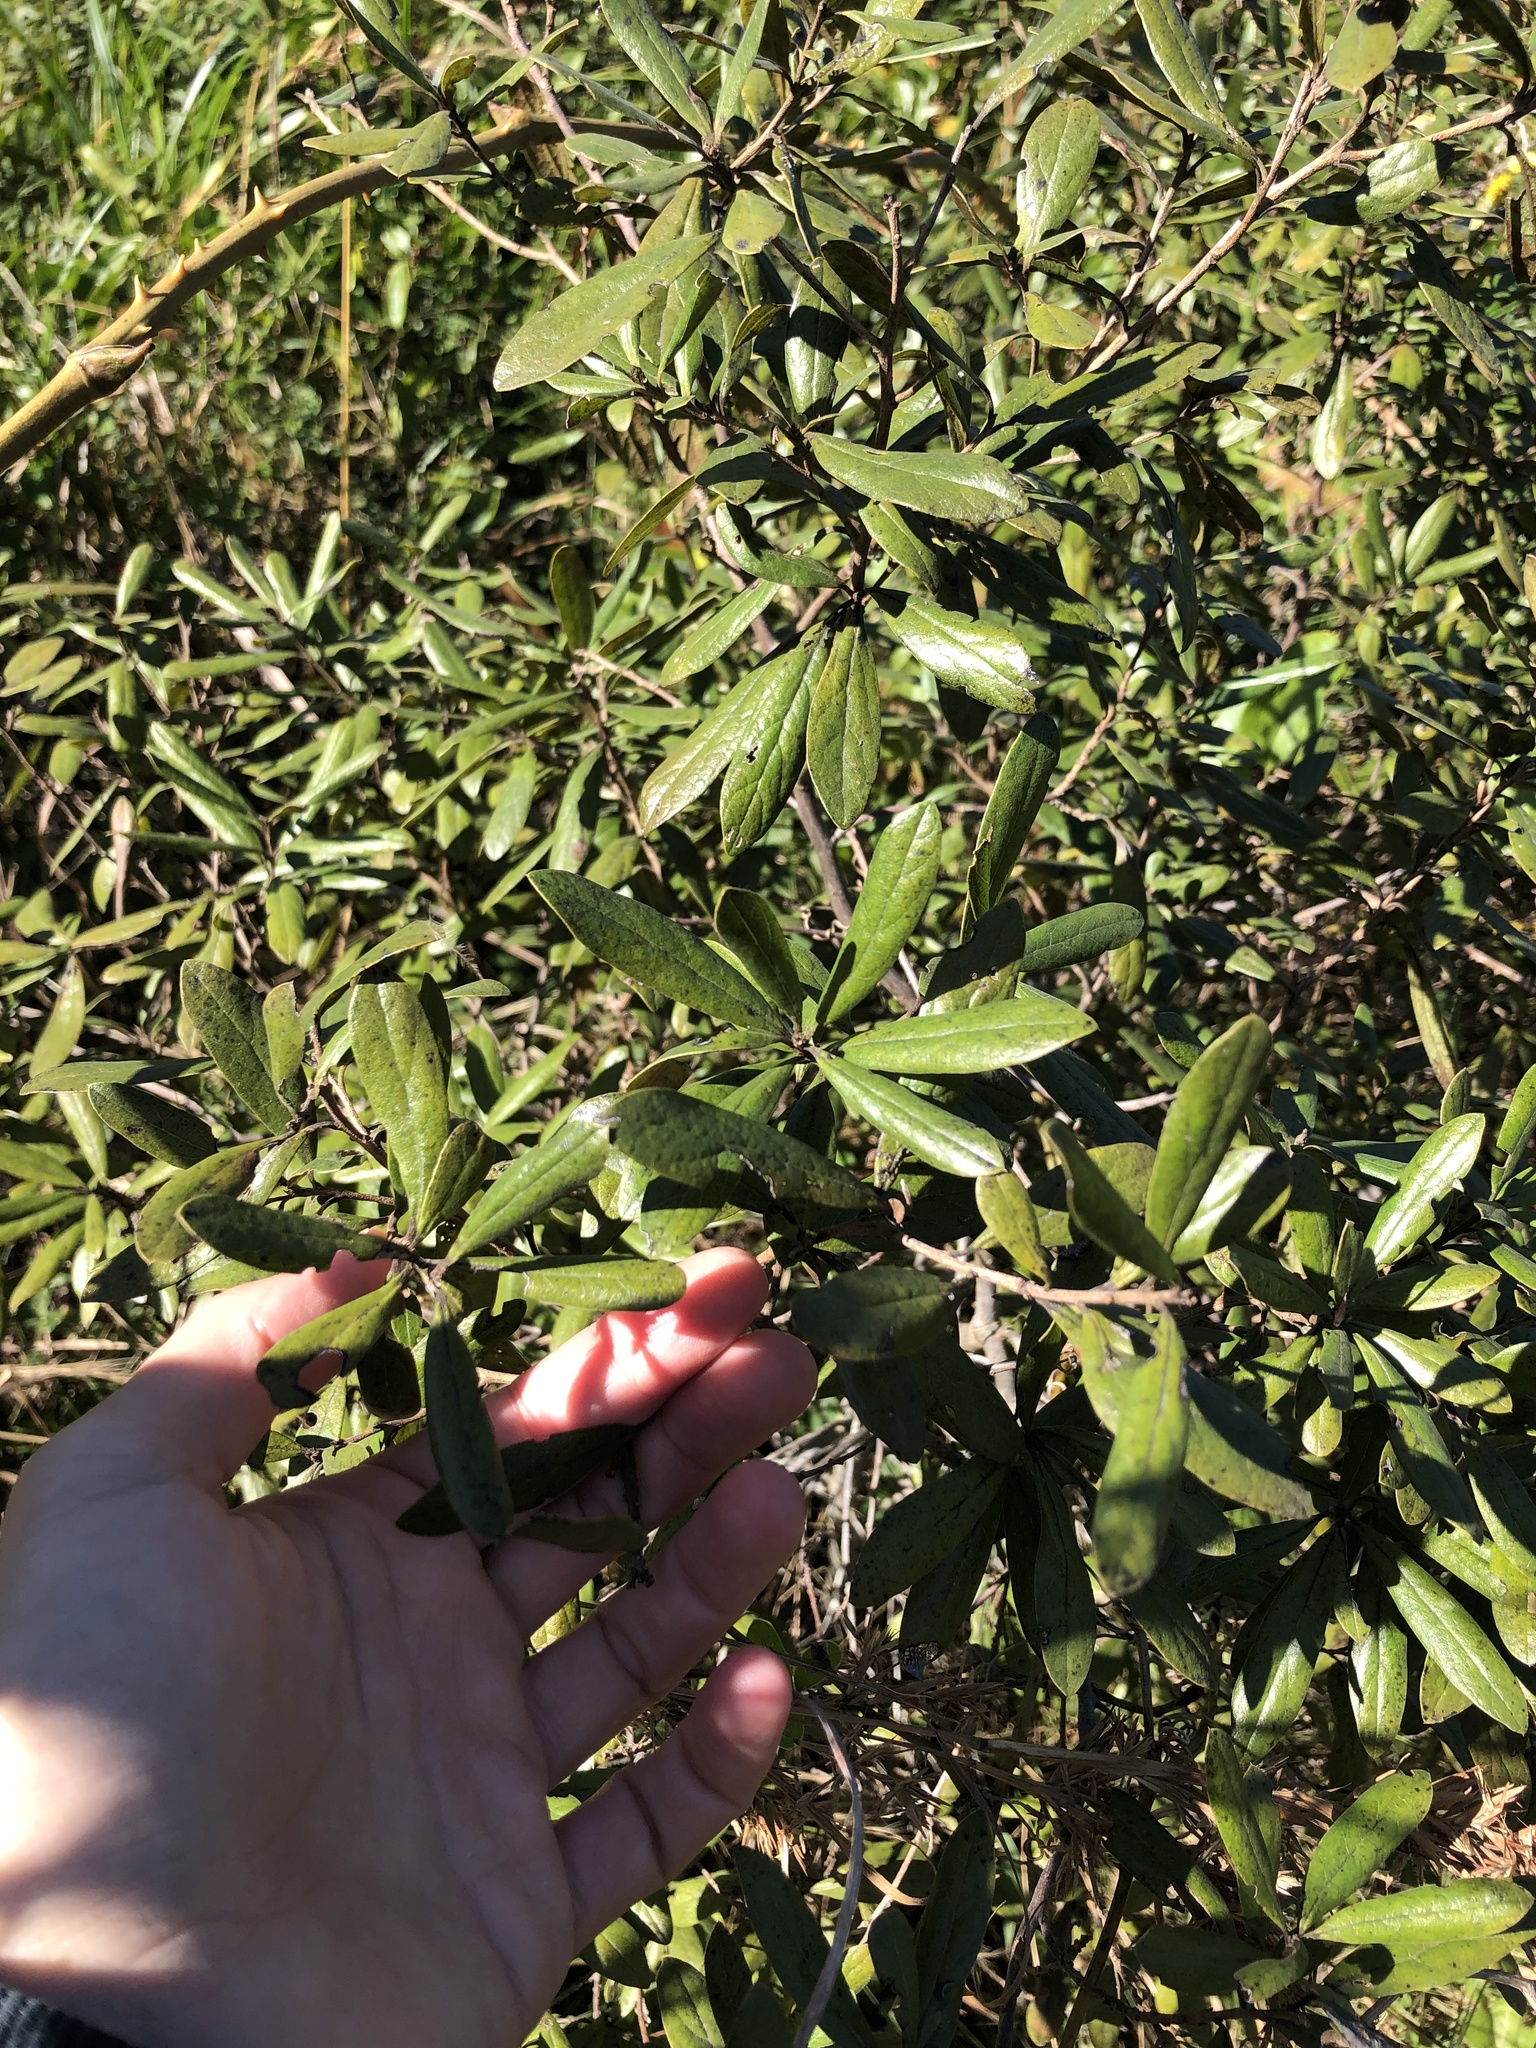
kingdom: Plantae
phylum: Tracheophyta
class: Magnoliopsida
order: Ericales
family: Ebenaceae
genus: Diospyros
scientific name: Diospyros lycioides
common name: Red star apple
